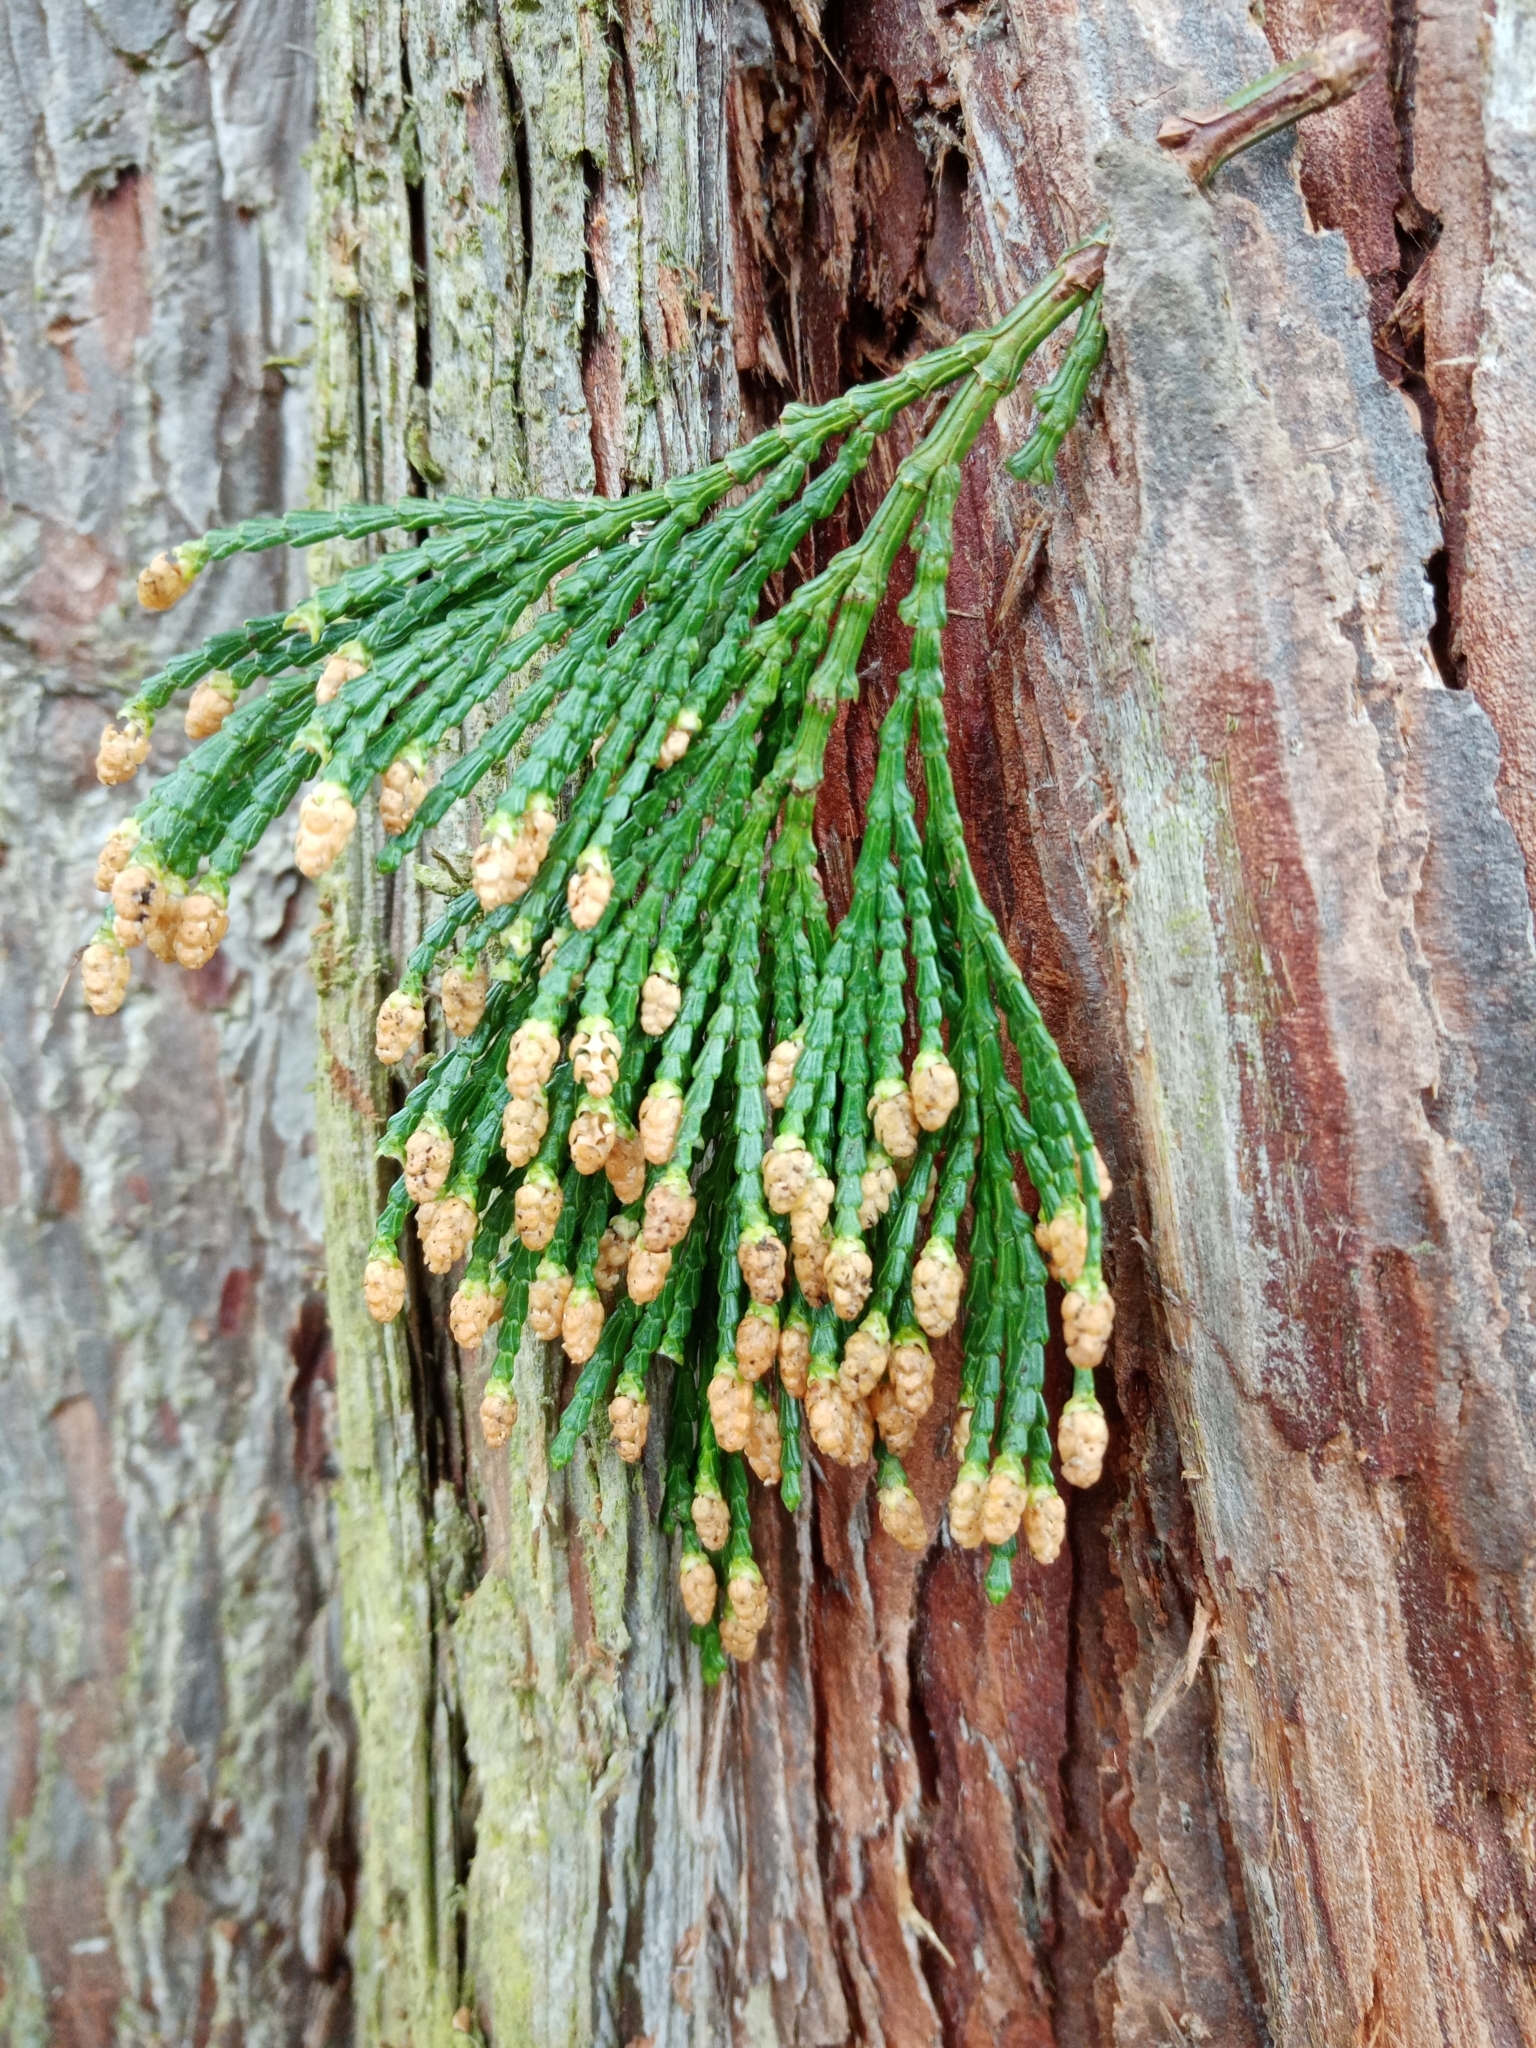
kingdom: Plantae
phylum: Tracheophyta
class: Pinopsida
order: Pinales
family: Cupressaceae
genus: Calocedrus
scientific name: Calocedrus decurrens
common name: Californian incense-cedar
